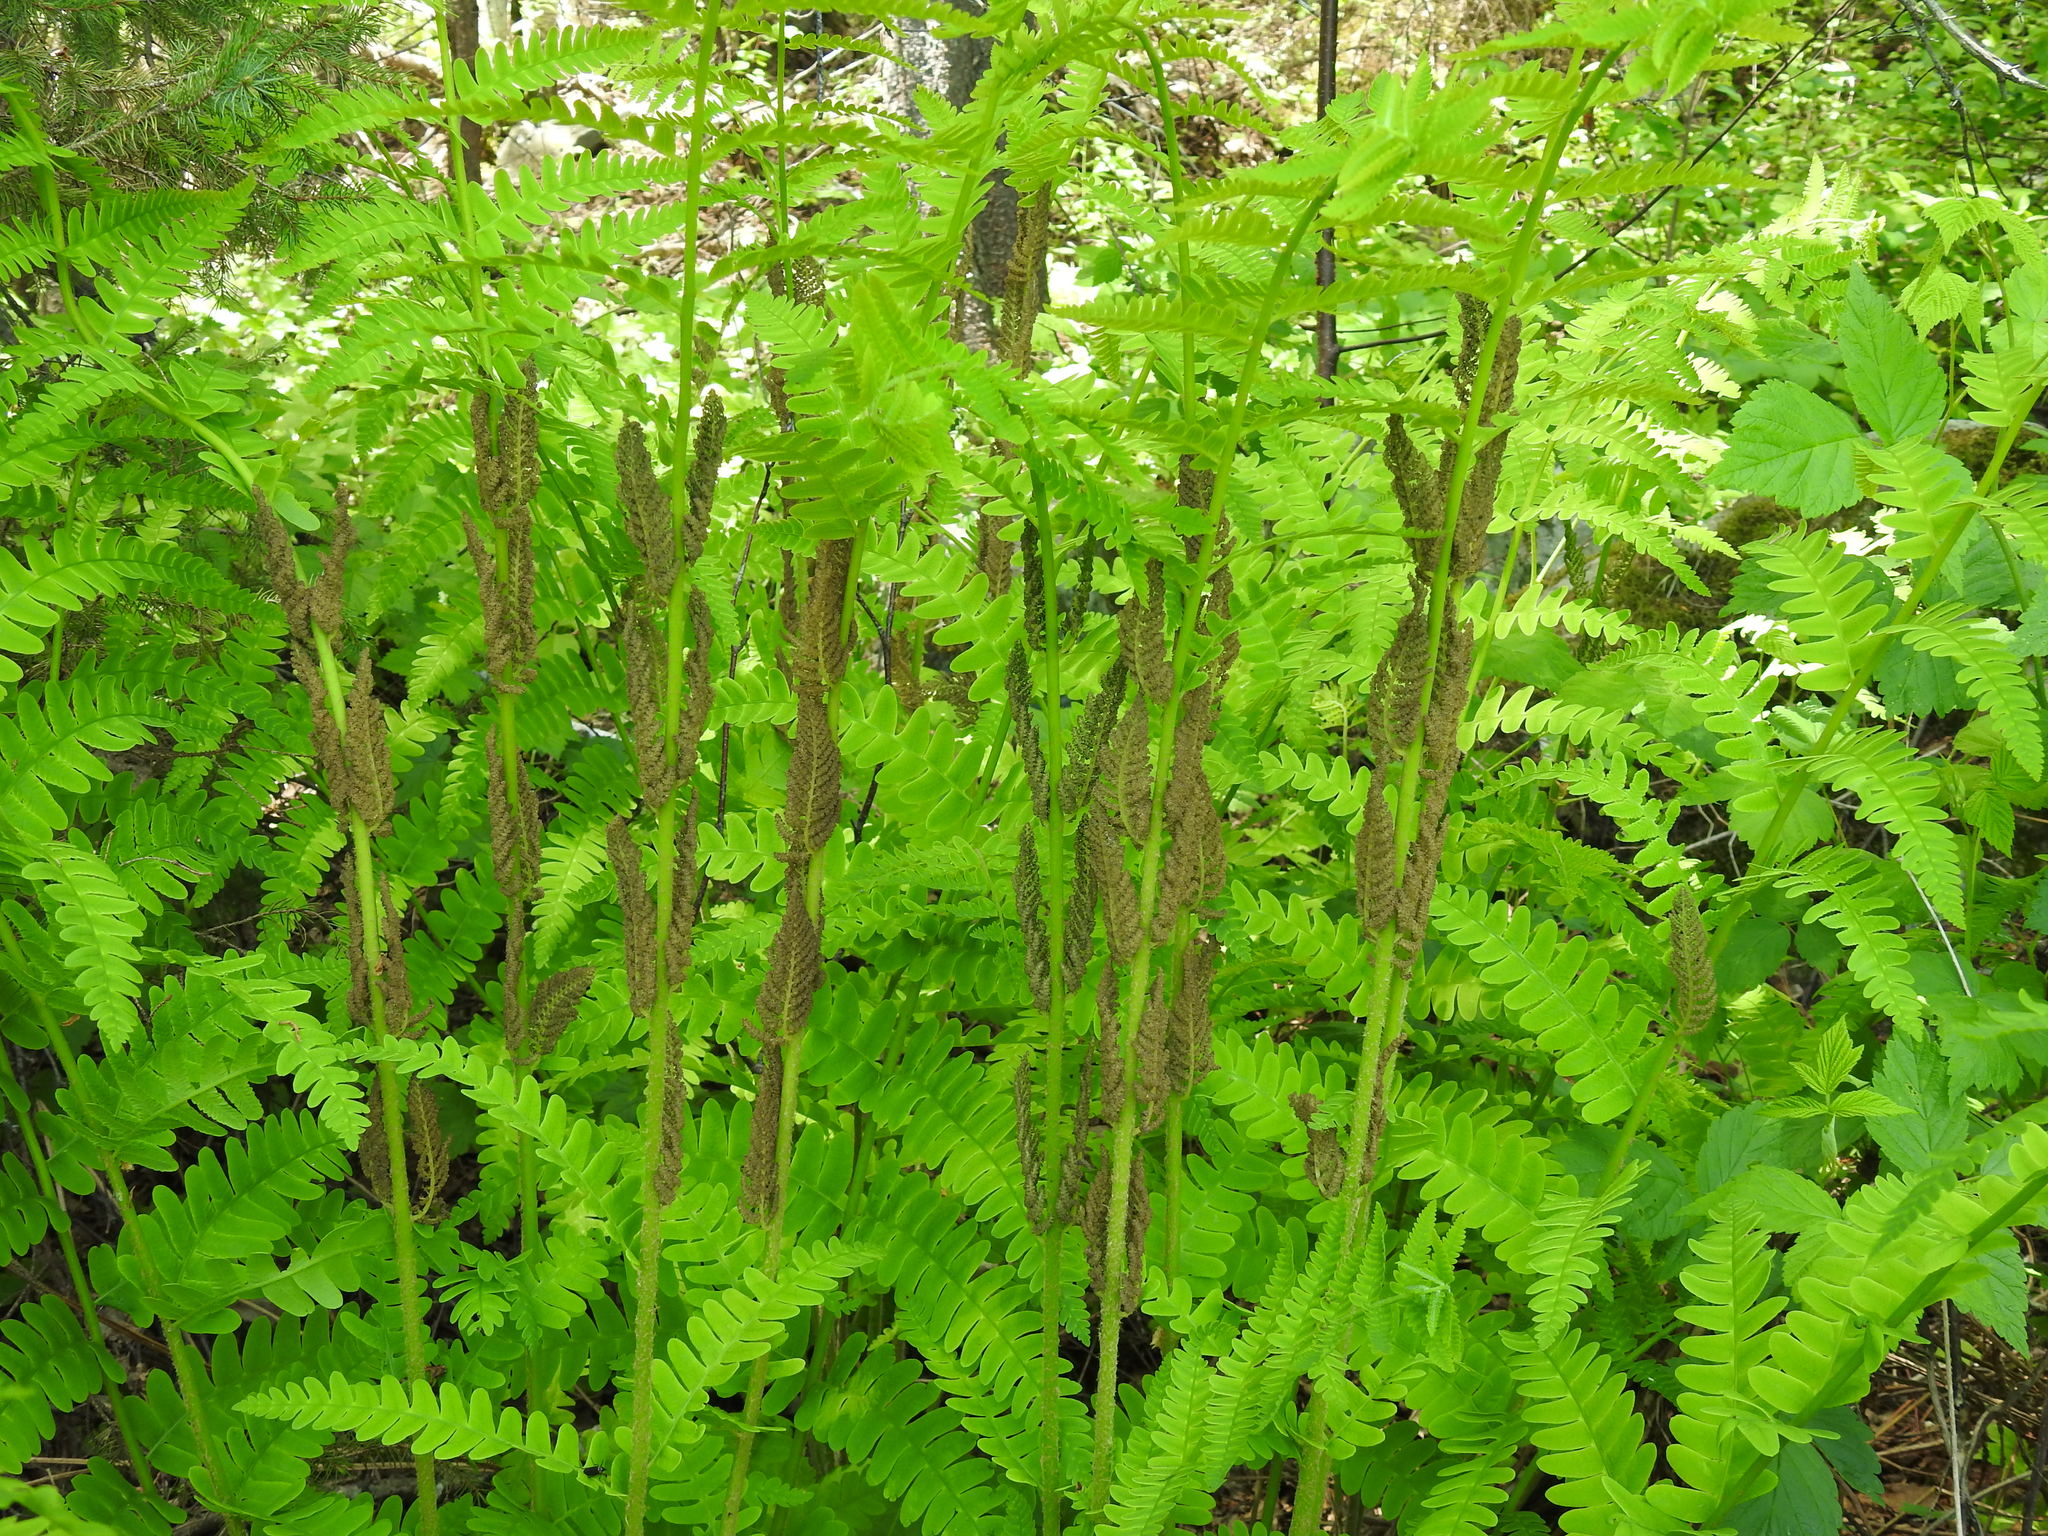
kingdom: Plantae
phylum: Tracheophyta
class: Polypodiopsida
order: Osmundales
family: Osmundaceae
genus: Claytosmunda
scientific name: Claytosmunda claytoniana
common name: Clayton's fern
